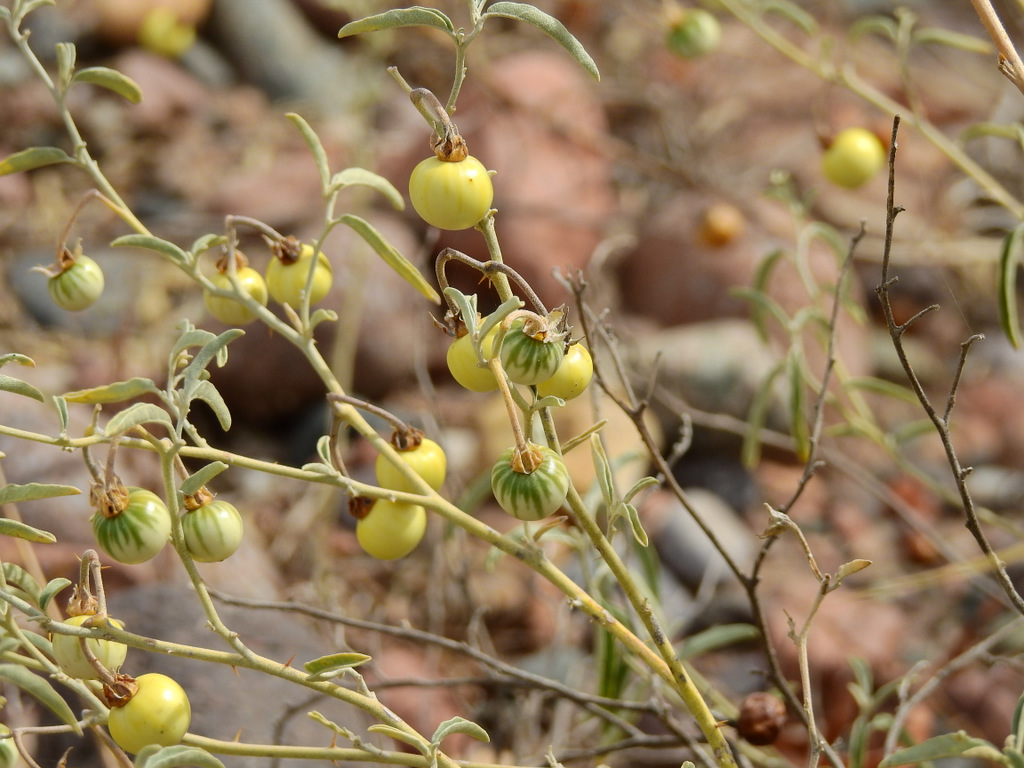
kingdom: Plantae
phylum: Tracheophyta
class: Magnoliopsida
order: Solanales
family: Solanaceae
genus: Solanum
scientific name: Solanum elaeagnifolium
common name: Silverleaf nightshade
